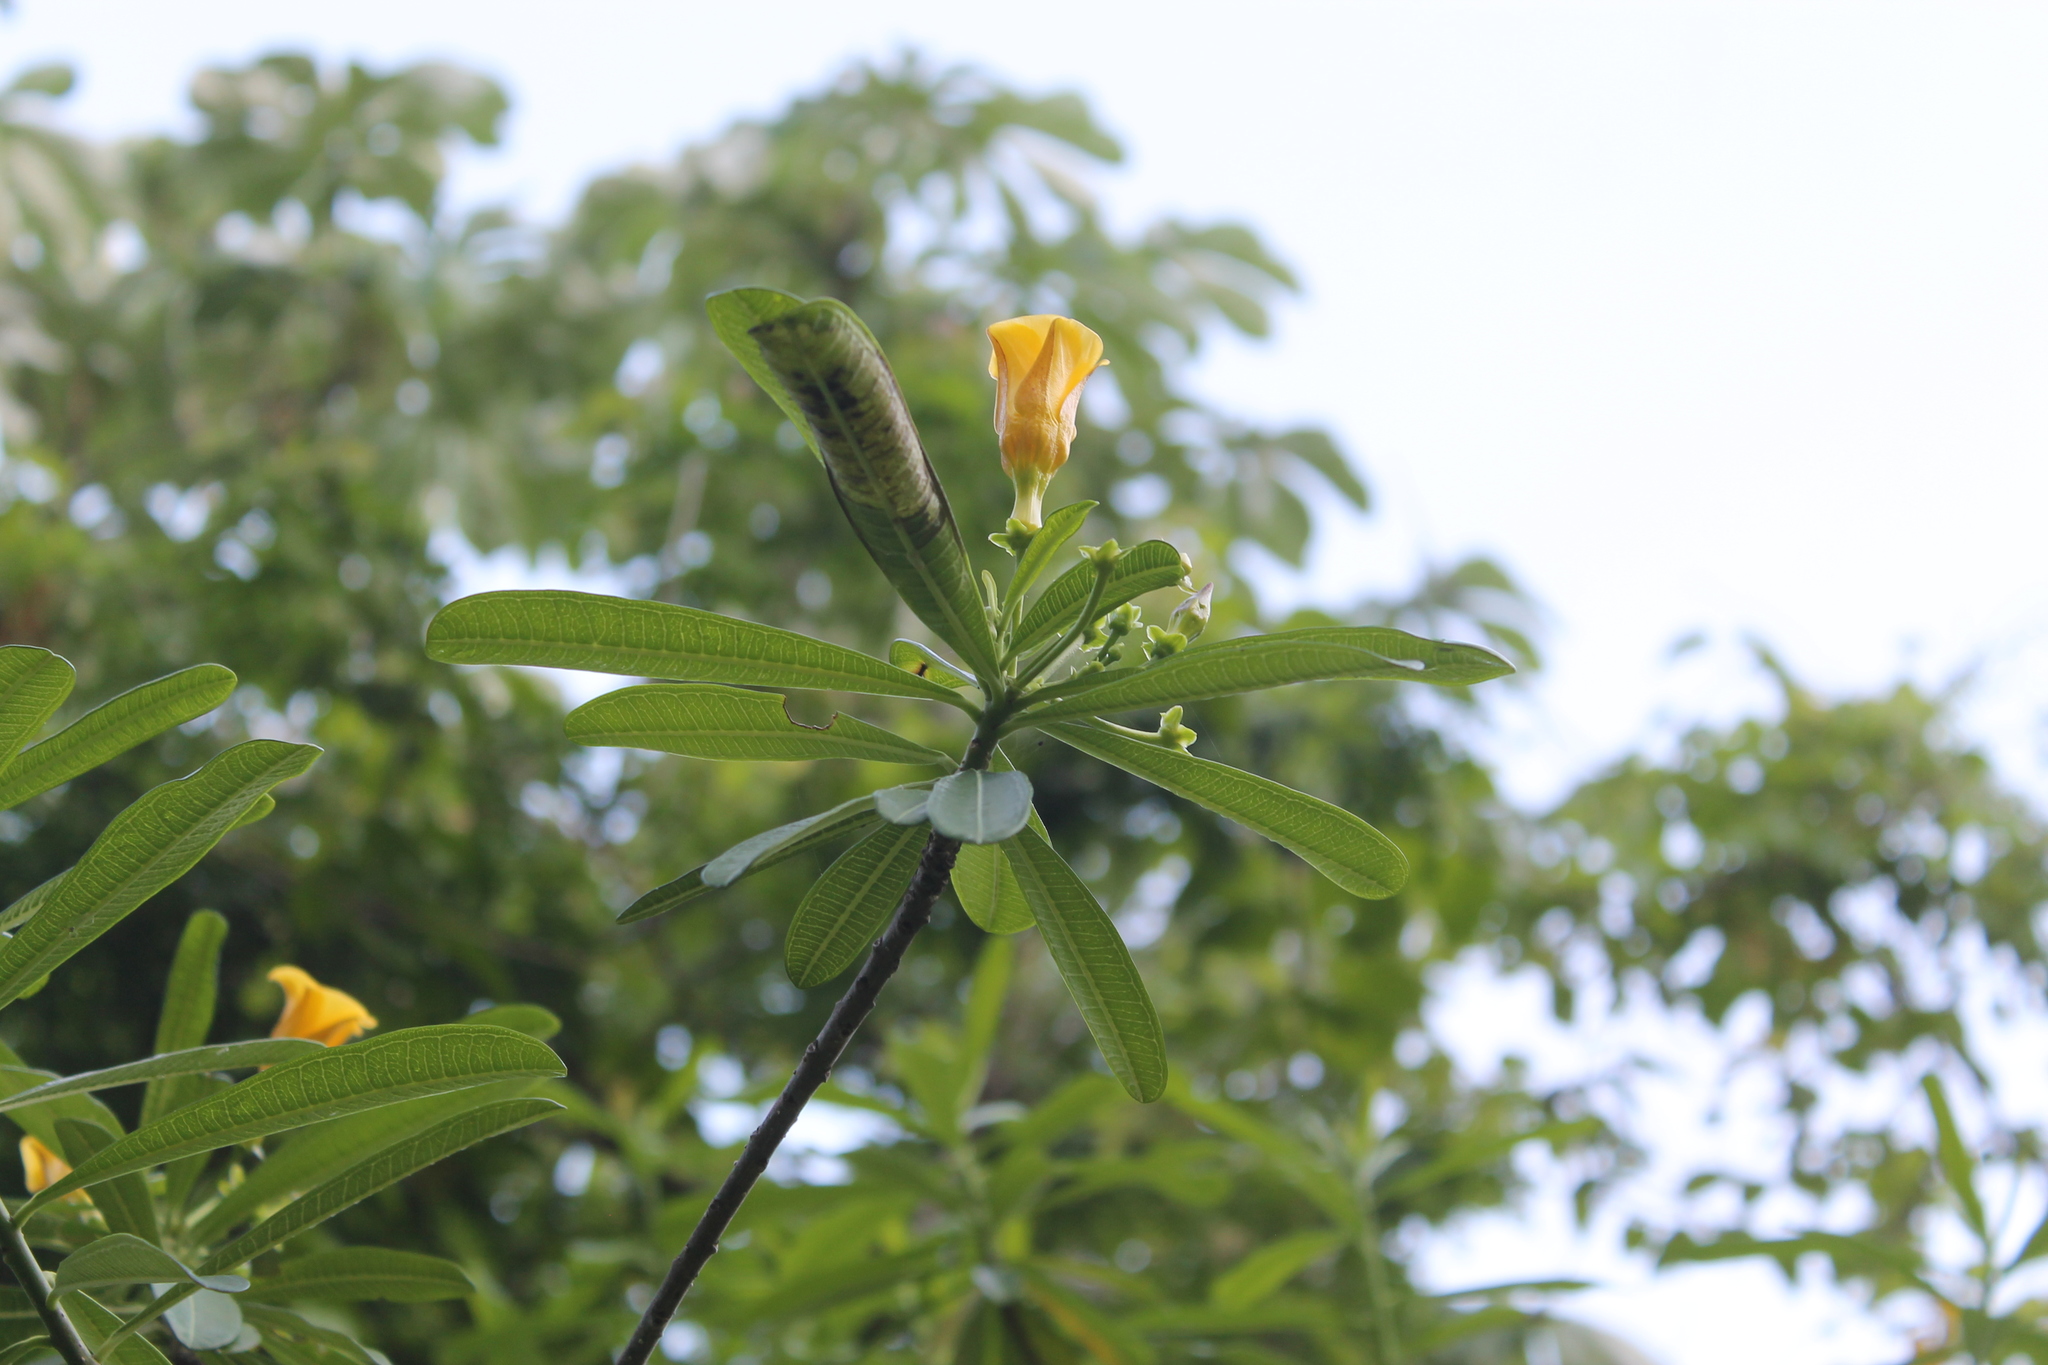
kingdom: Plantae
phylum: Tracheophyta
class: Magnoliopsida
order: Gentianales
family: Apocynaceae
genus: Cascabela
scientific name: Cascabela ovata
